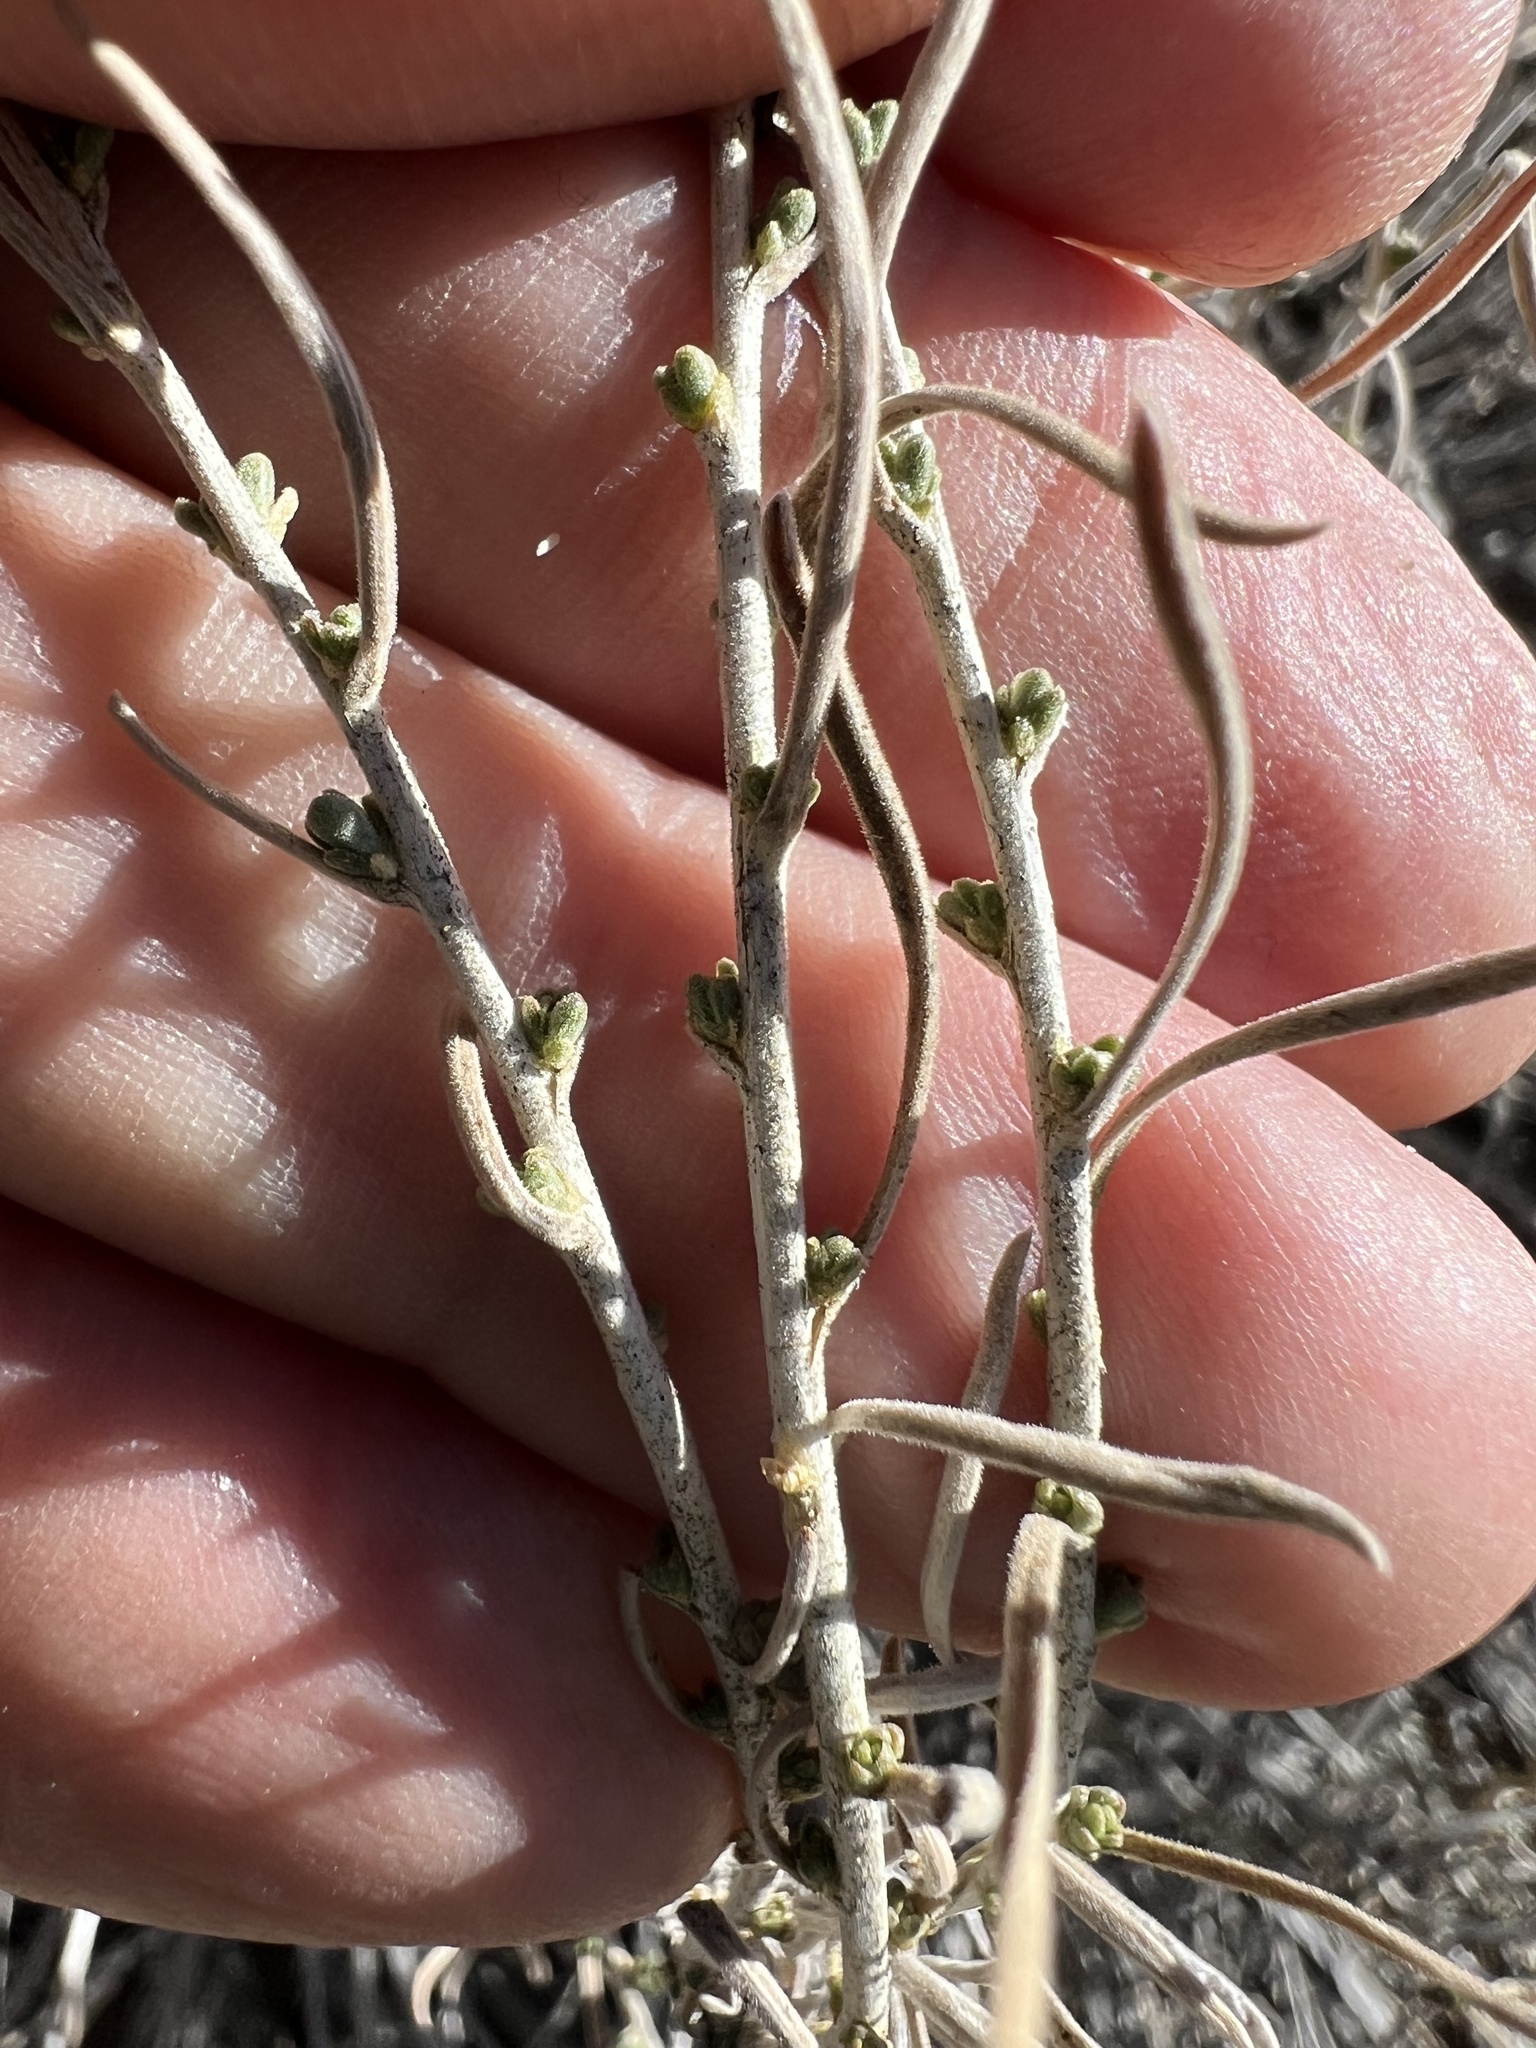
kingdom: Plantae
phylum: Tracheophyta
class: Magnoliopsida
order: Asterales
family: Asteraceae
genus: Chrysothamnus
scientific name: Chrysothamnus viscidiflorus
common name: Yellow rabbitbrush
